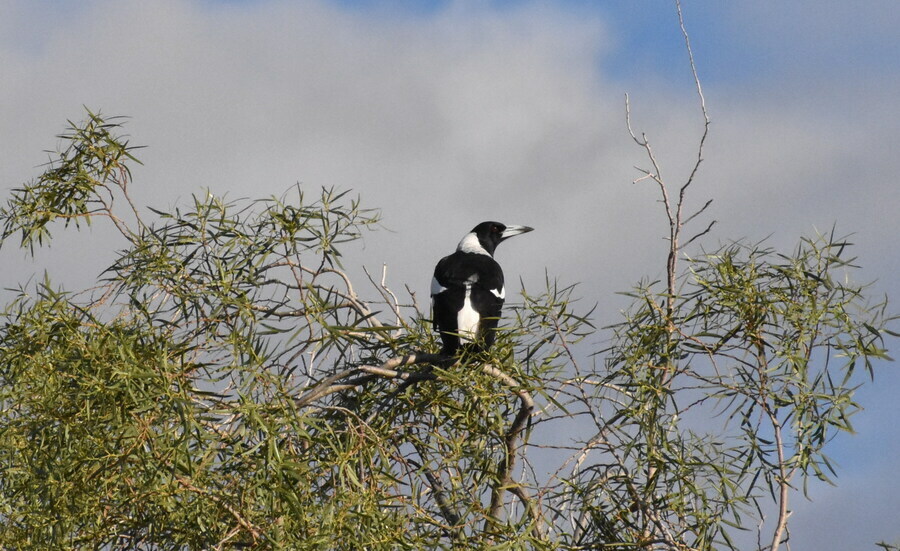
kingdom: Animalia
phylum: Chordata
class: Aves
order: Passeriformes
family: Cracticidae
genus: Gymnorhina
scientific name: Gymnorhina tibicen
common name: Australian magpie
